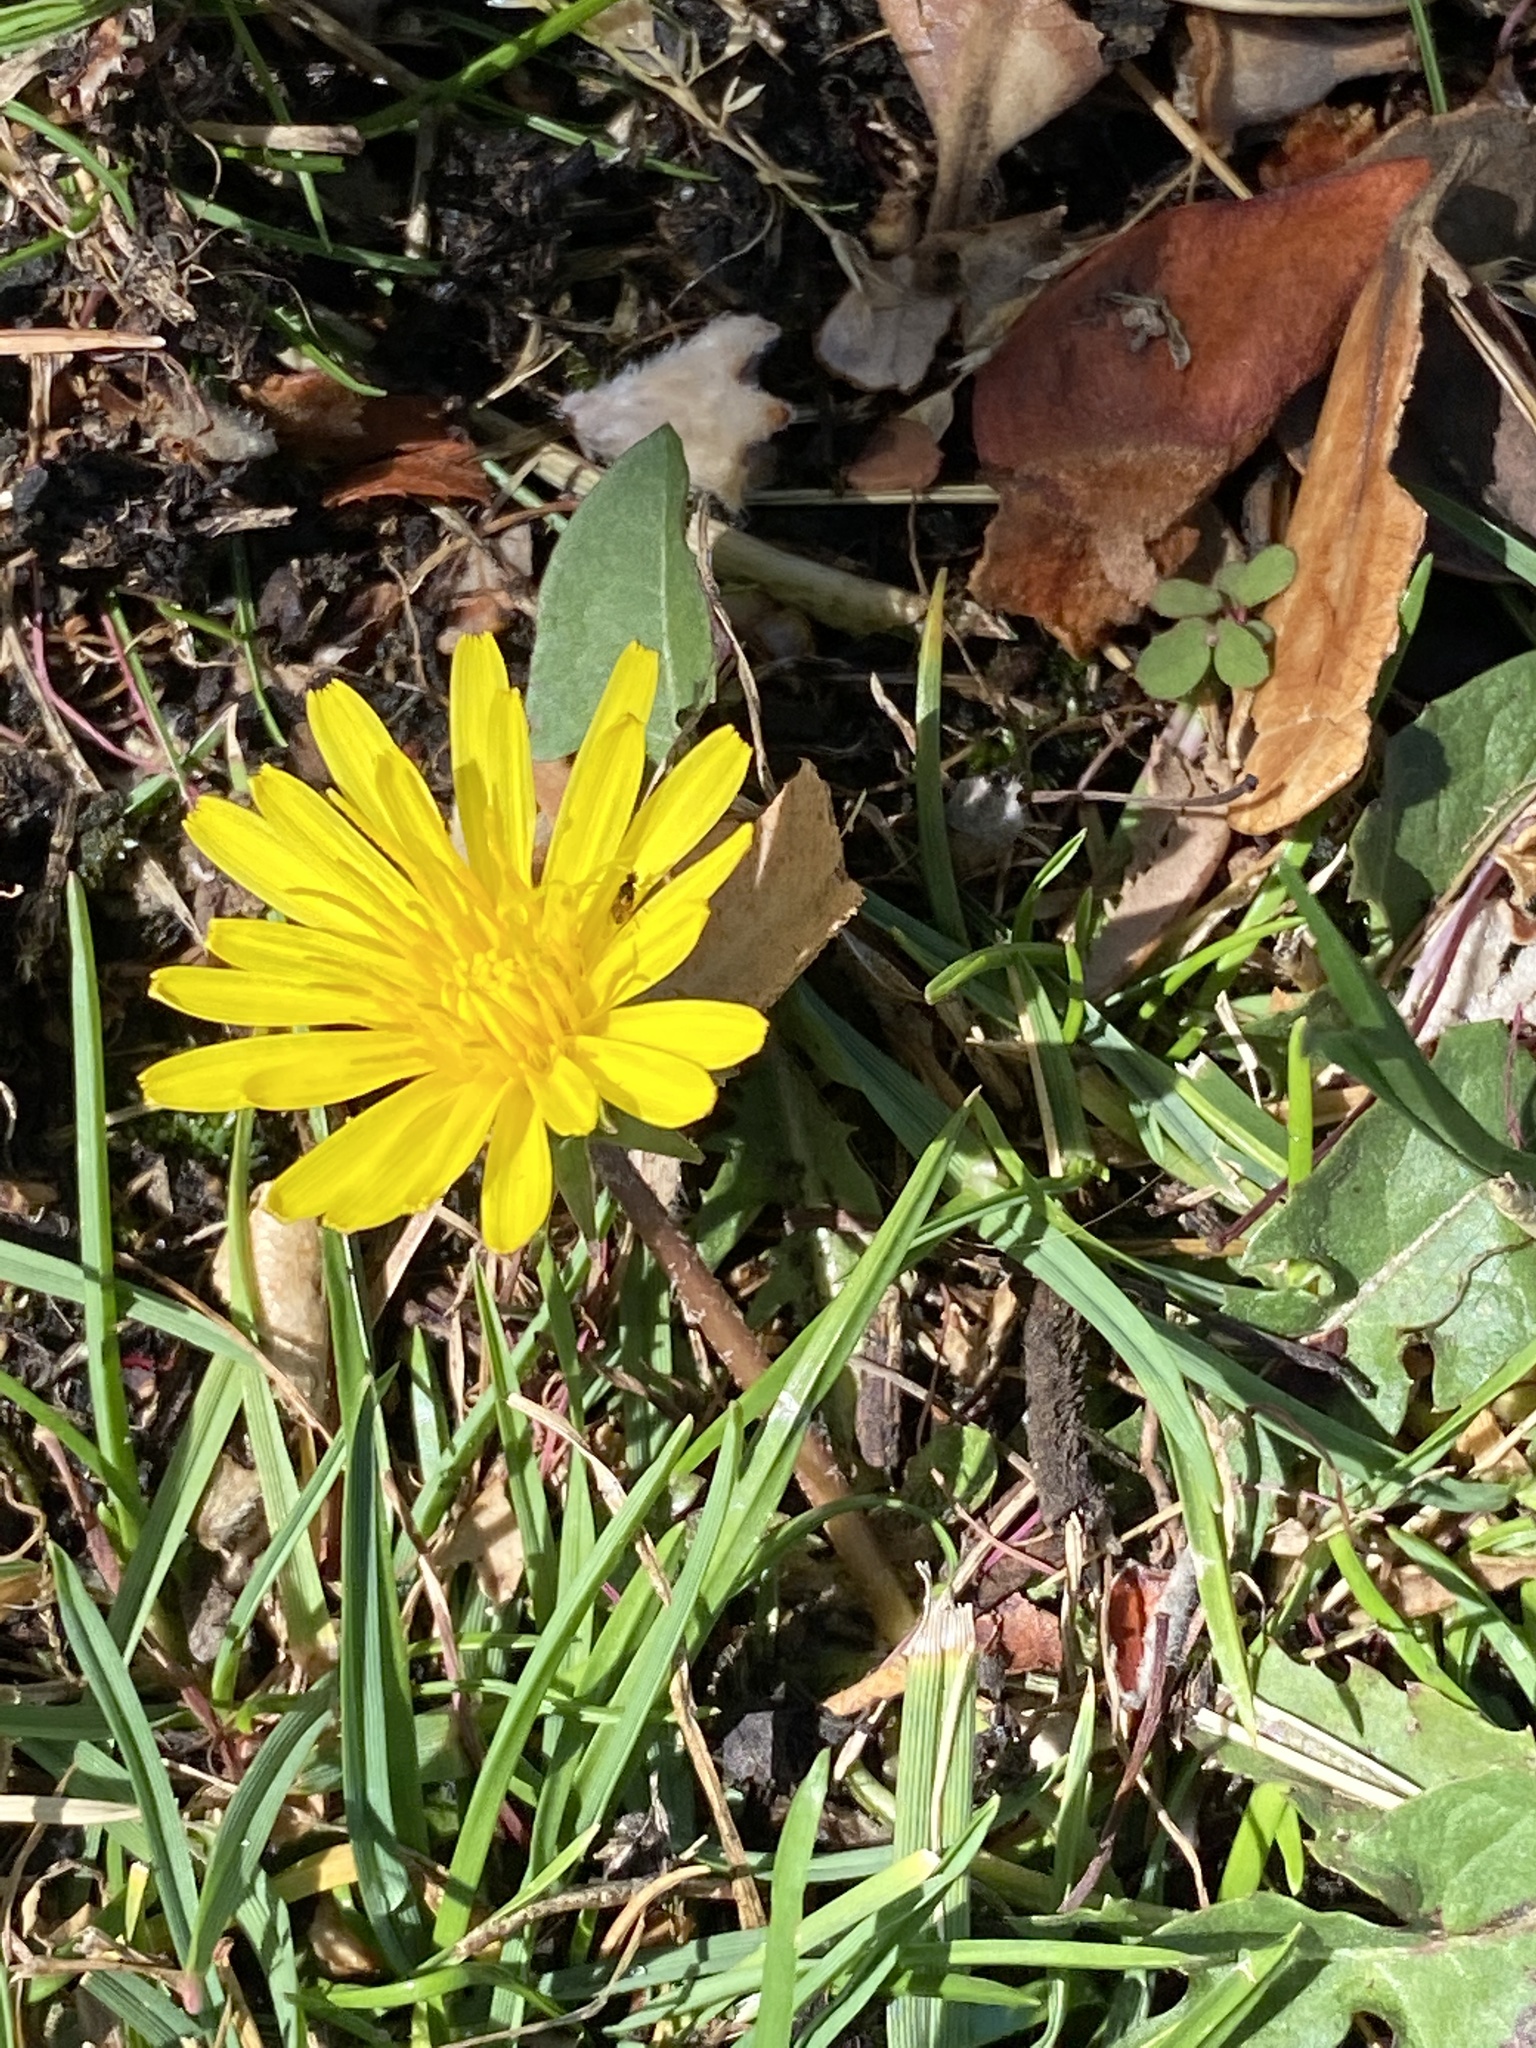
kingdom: Plantae
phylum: Tracheophyta
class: Magnoliopsida
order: Asterales
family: Asteraceae
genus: Taraxacum
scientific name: Taraxacum officinale
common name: Common dandelion
